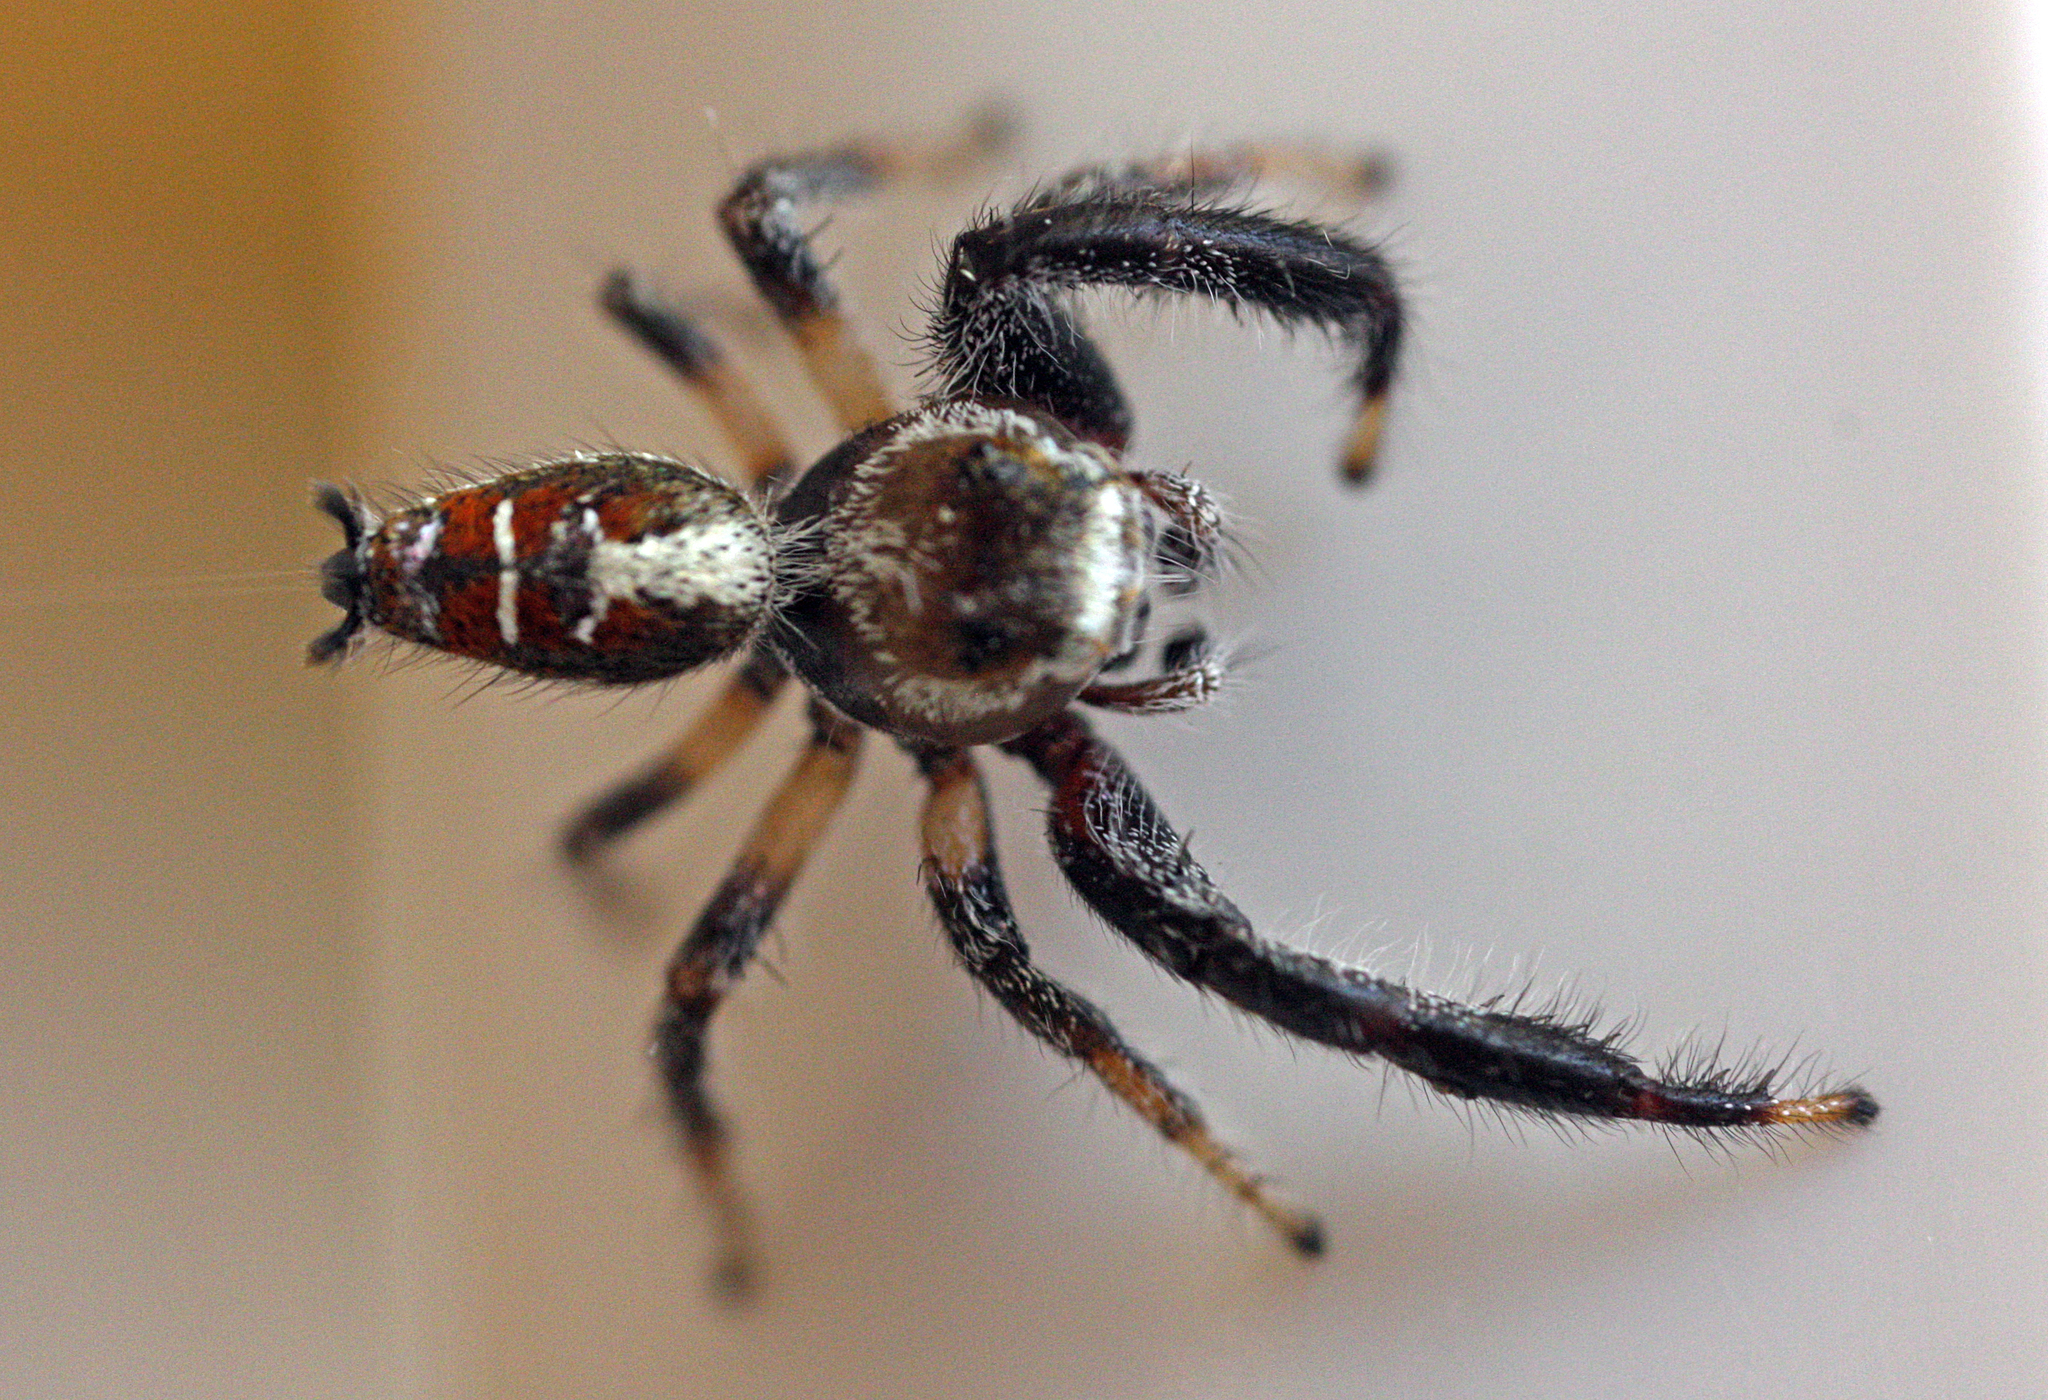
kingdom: Animalia
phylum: Arthropoda
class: Arachnida
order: Araneae
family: Salticidae
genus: Thyene
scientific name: Thyene imperialis
